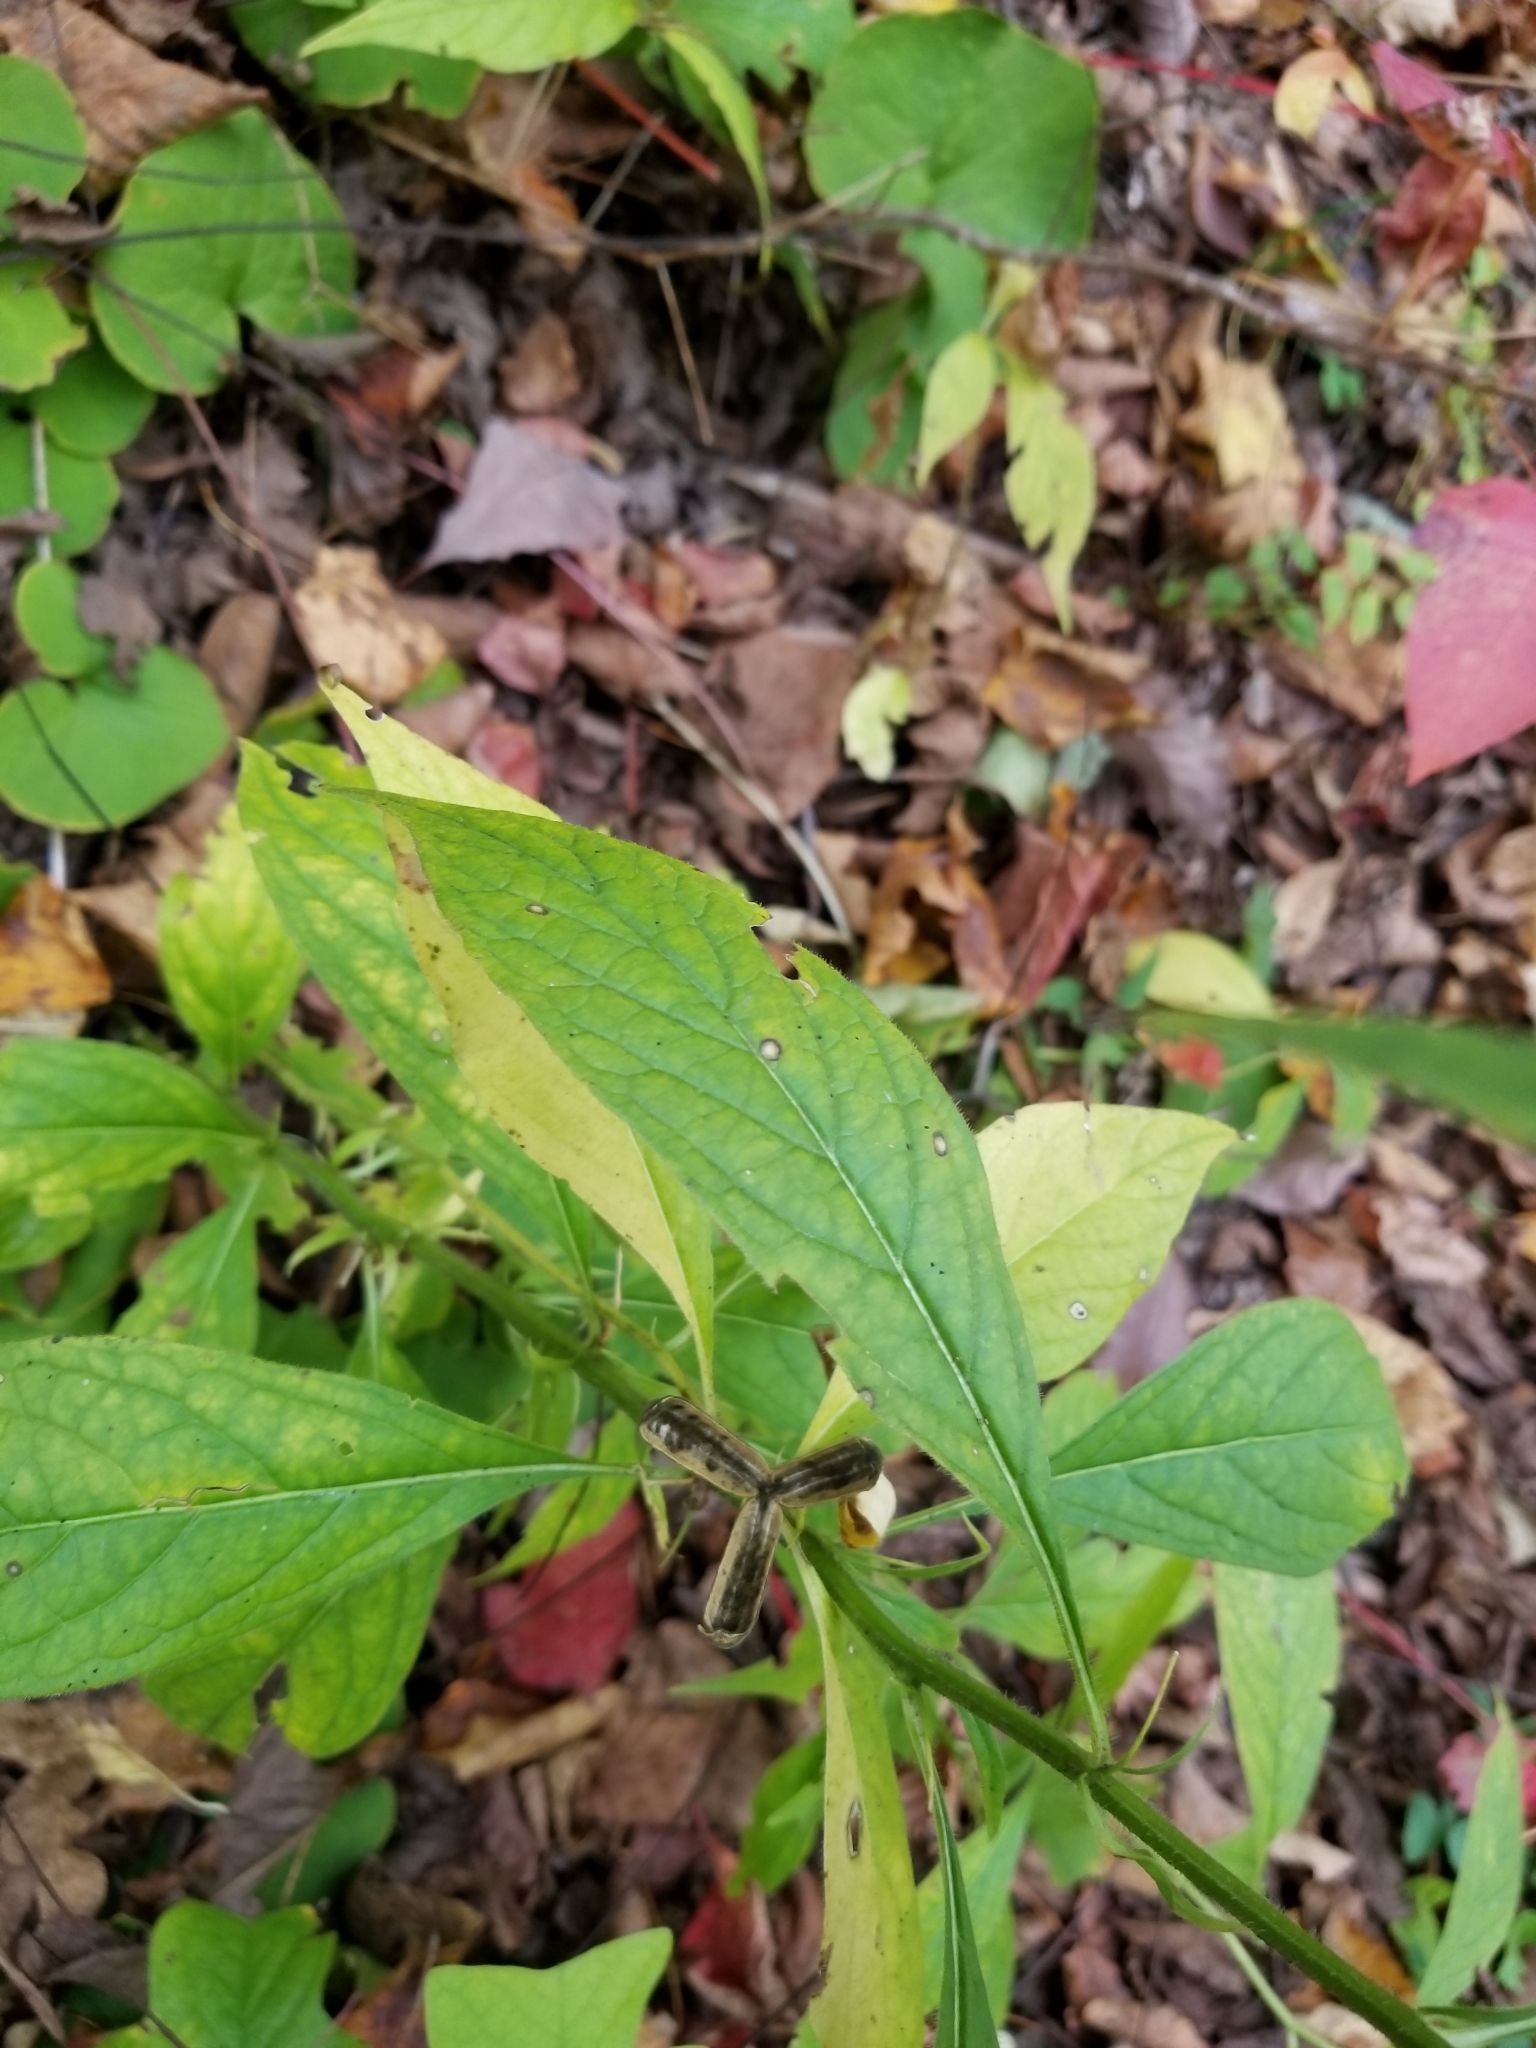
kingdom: Plantae
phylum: Tracheophyta
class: Magnoliopsida
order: Malpighiales
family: Violaceae
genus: Cubelium
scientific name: Cubelium concolor
